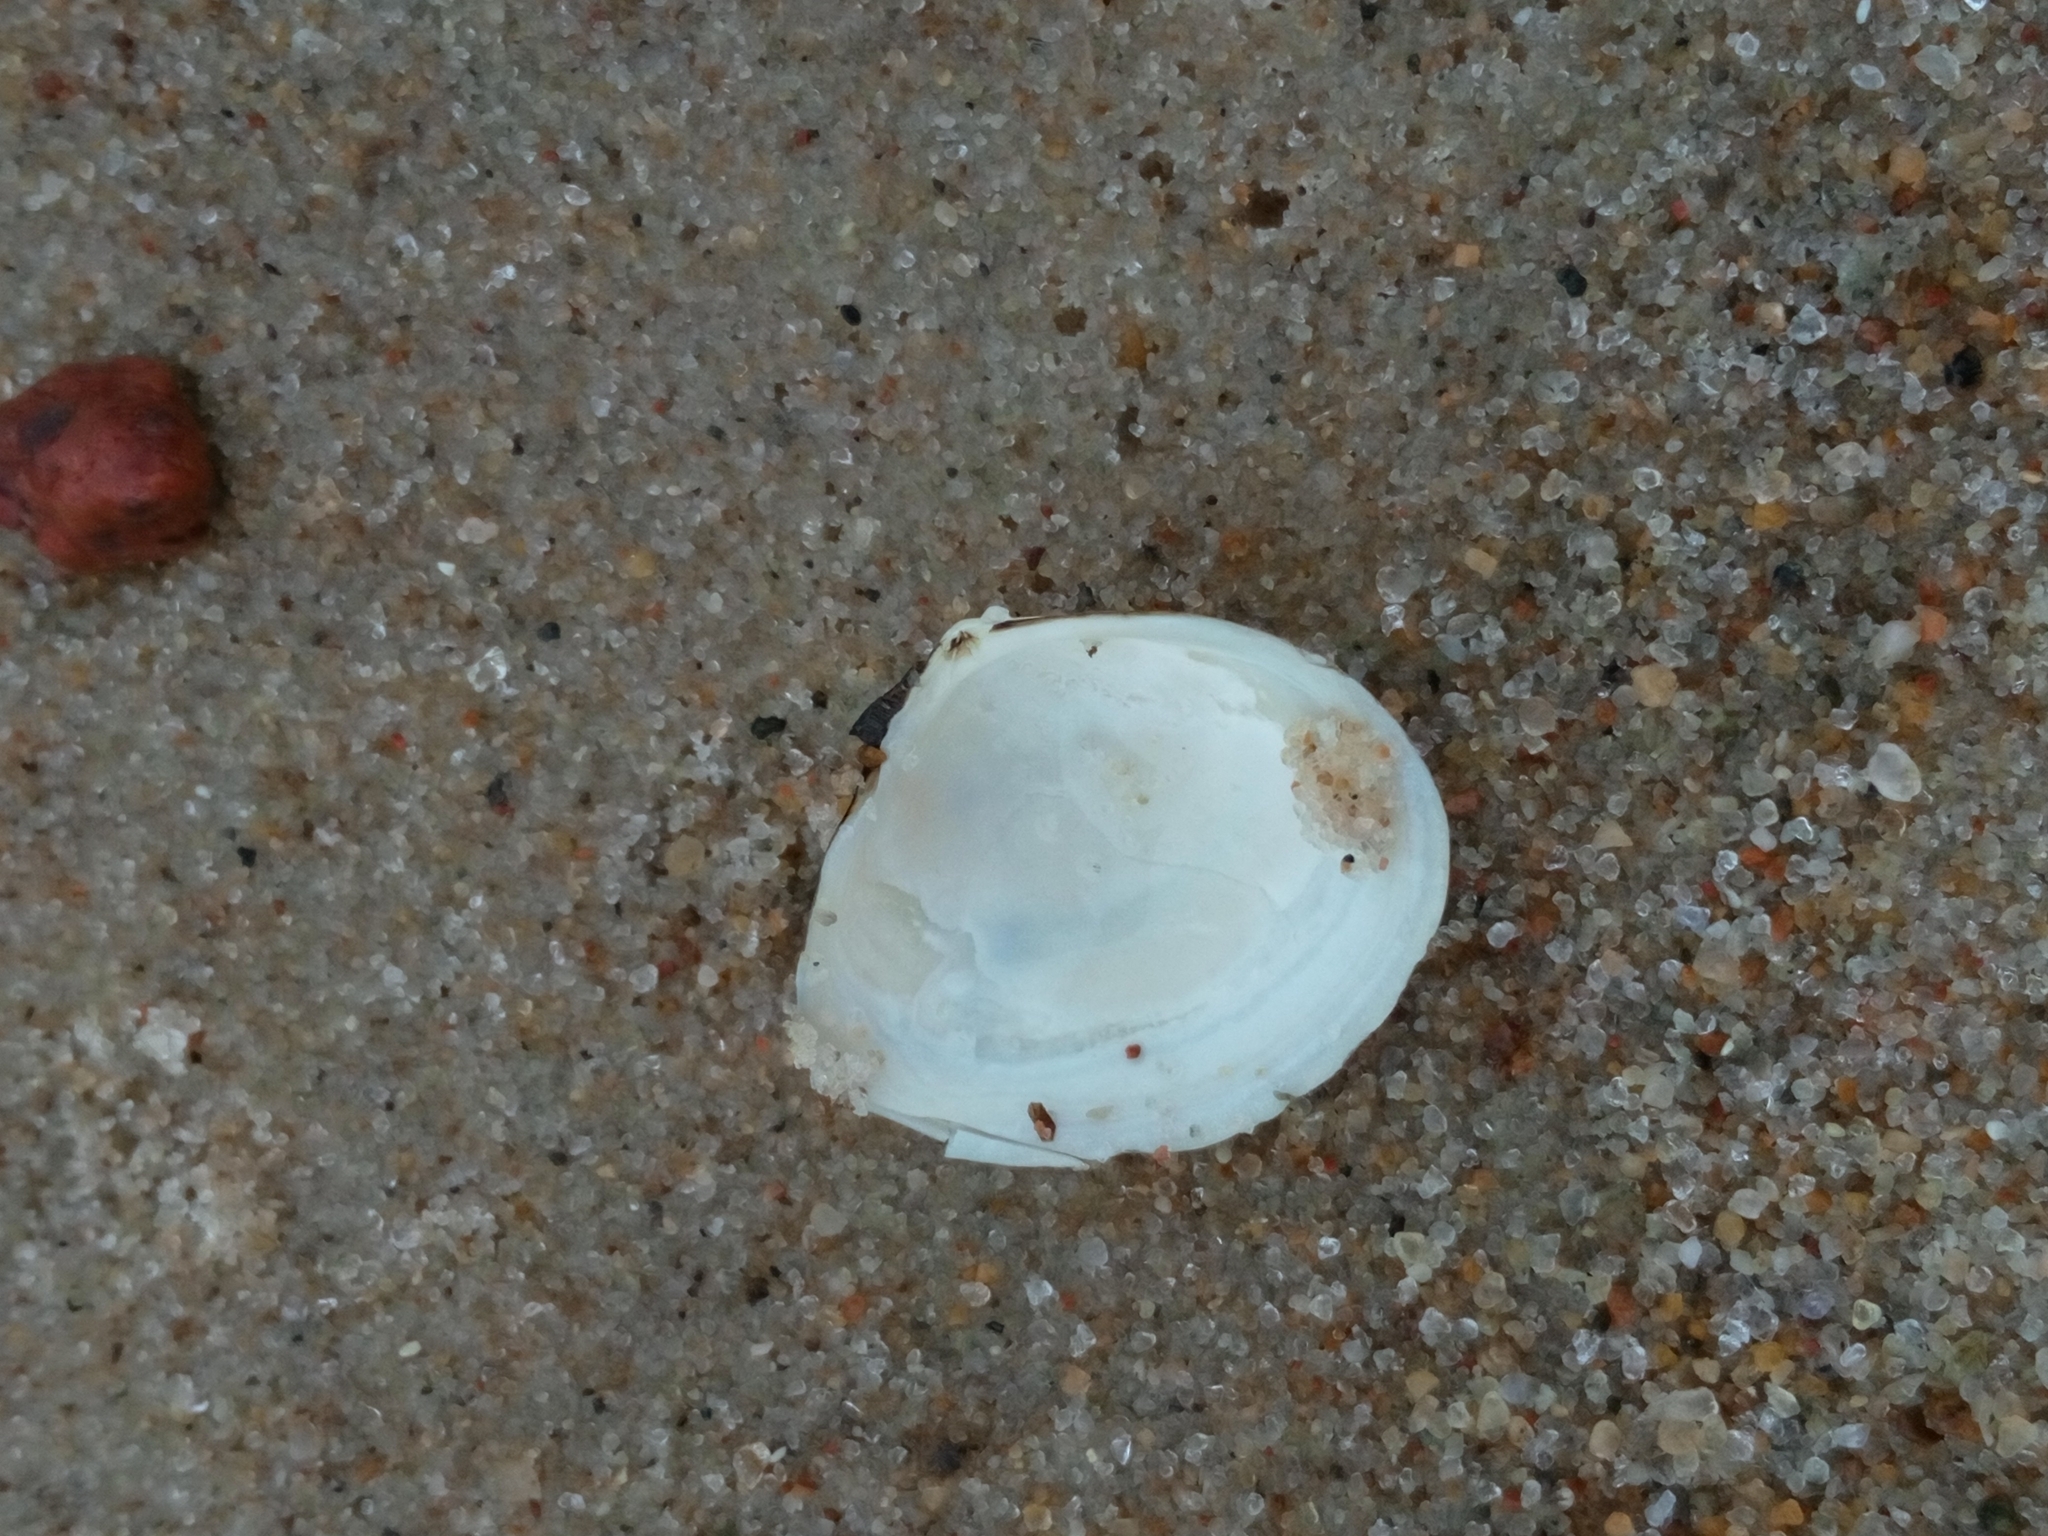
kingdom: Animalia
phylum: Mollusca
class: Bivalvia
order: Cardiida
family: Tellinidae
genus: Macoma
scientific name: Macoma balthica
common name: Baltic tellin
